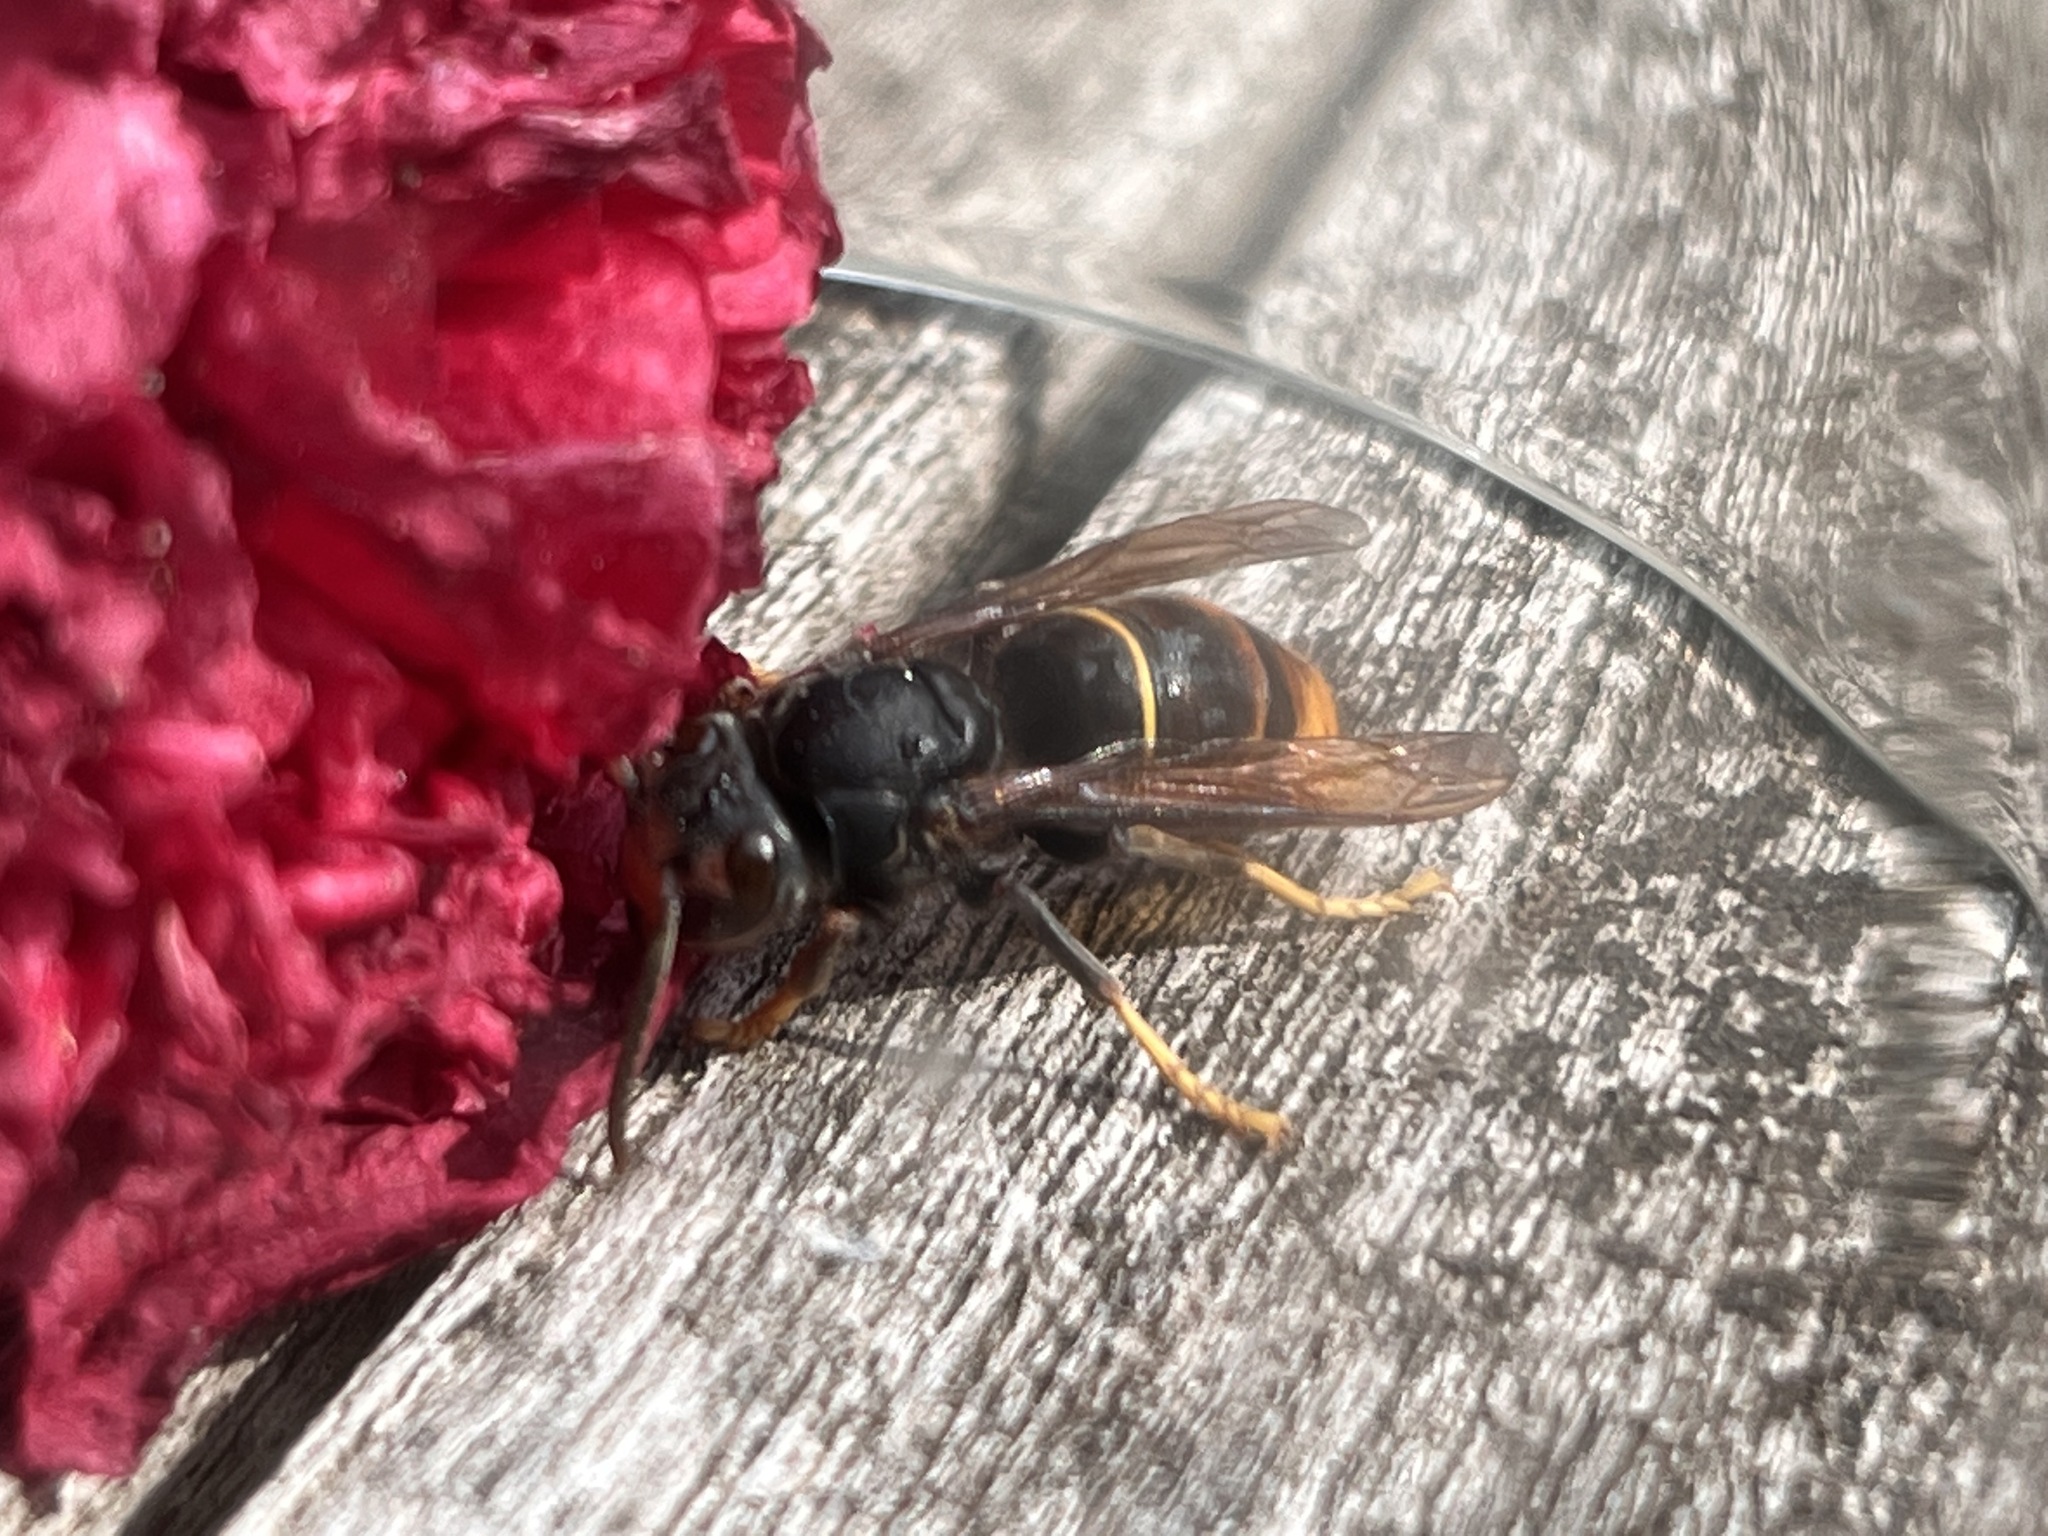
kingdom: Animalia
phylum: Arthropoda
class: Insecta
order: Hymenoptera
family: Vespidae
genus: Vespa
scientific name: Vespa velutina
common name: Asian hornet
